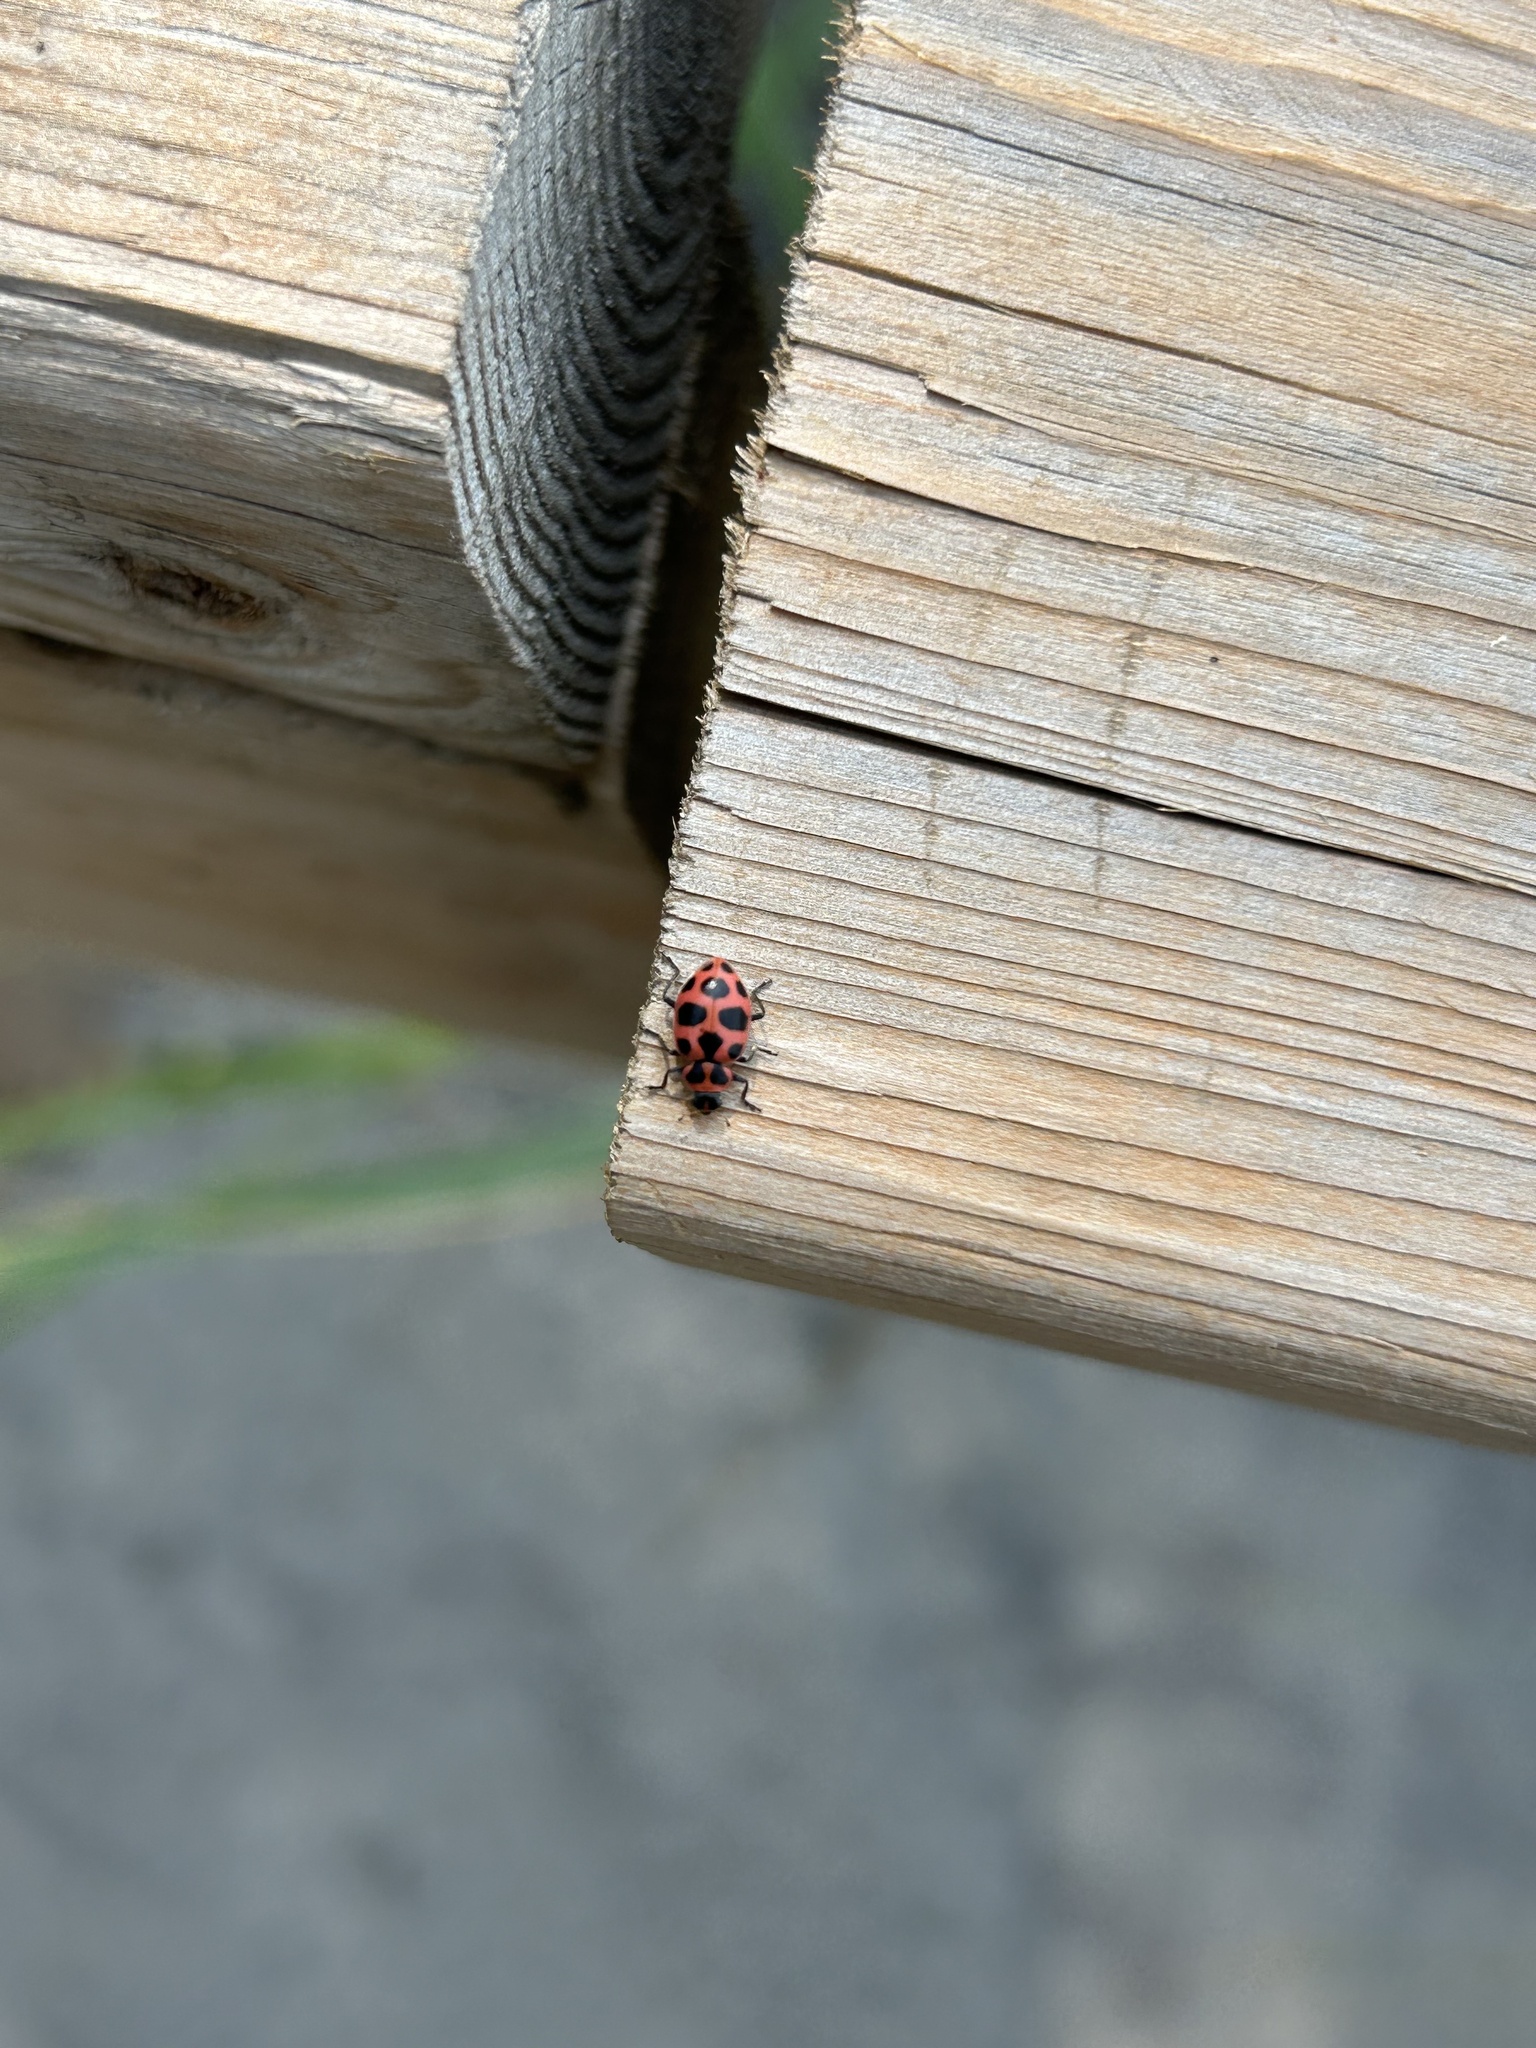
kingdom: Animalia
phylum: Arthropoda
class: Insecta
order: Coleoptera
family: Coccinellidae
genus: Coleomegilla
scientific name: Coleomegilla maculata
